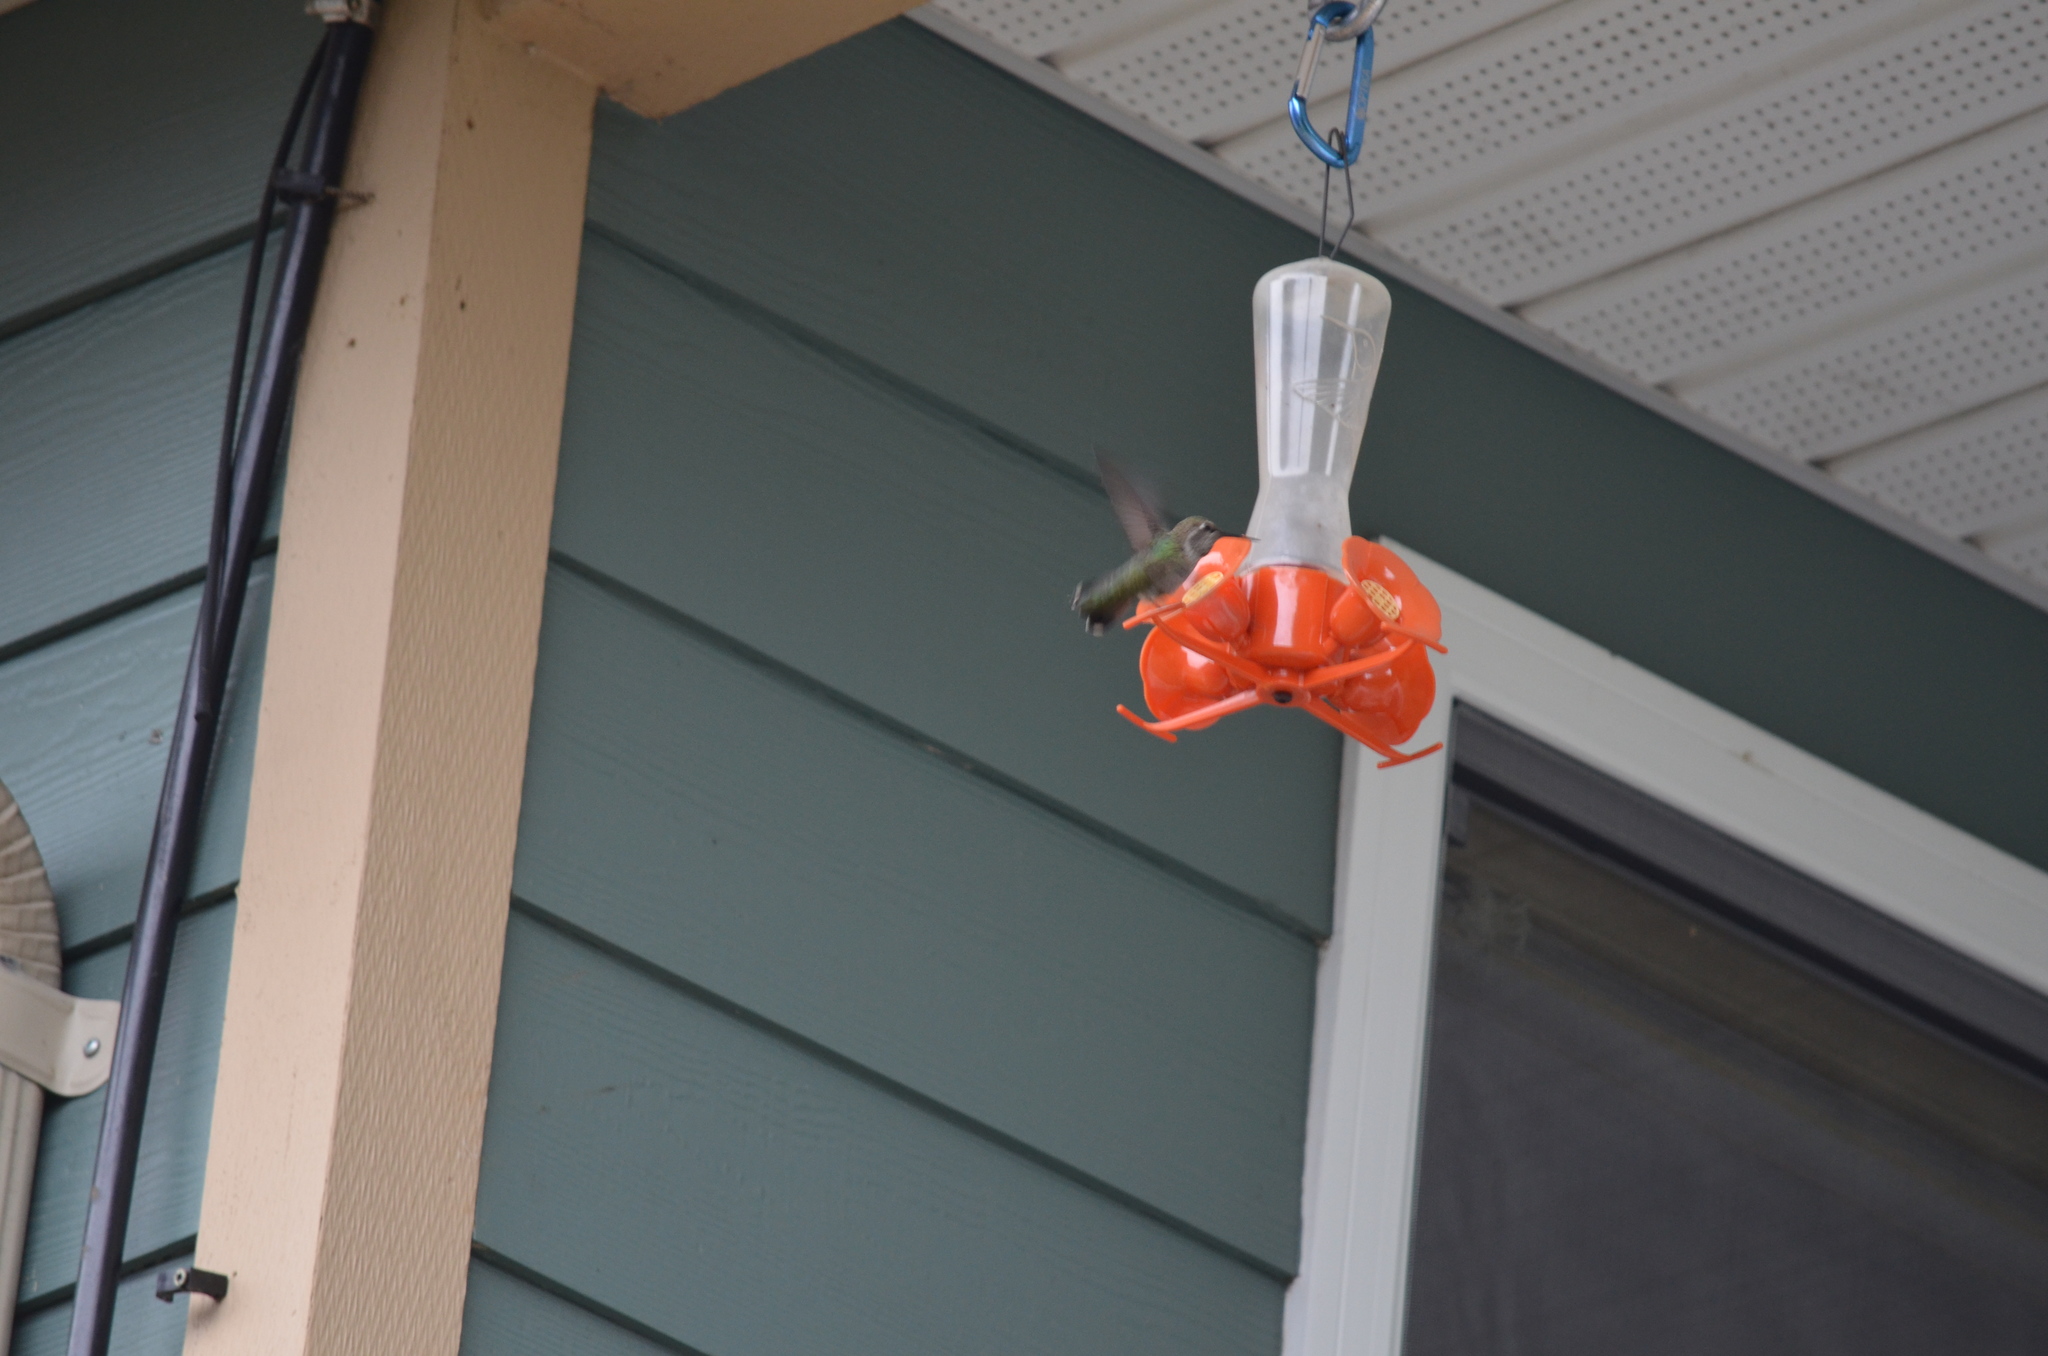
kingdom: Animalia
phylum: Chordata
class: Aves
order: Apodiformes
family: Trochilidae
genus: Calypte
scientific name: Calypte anna
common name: Anna's hummingbird
